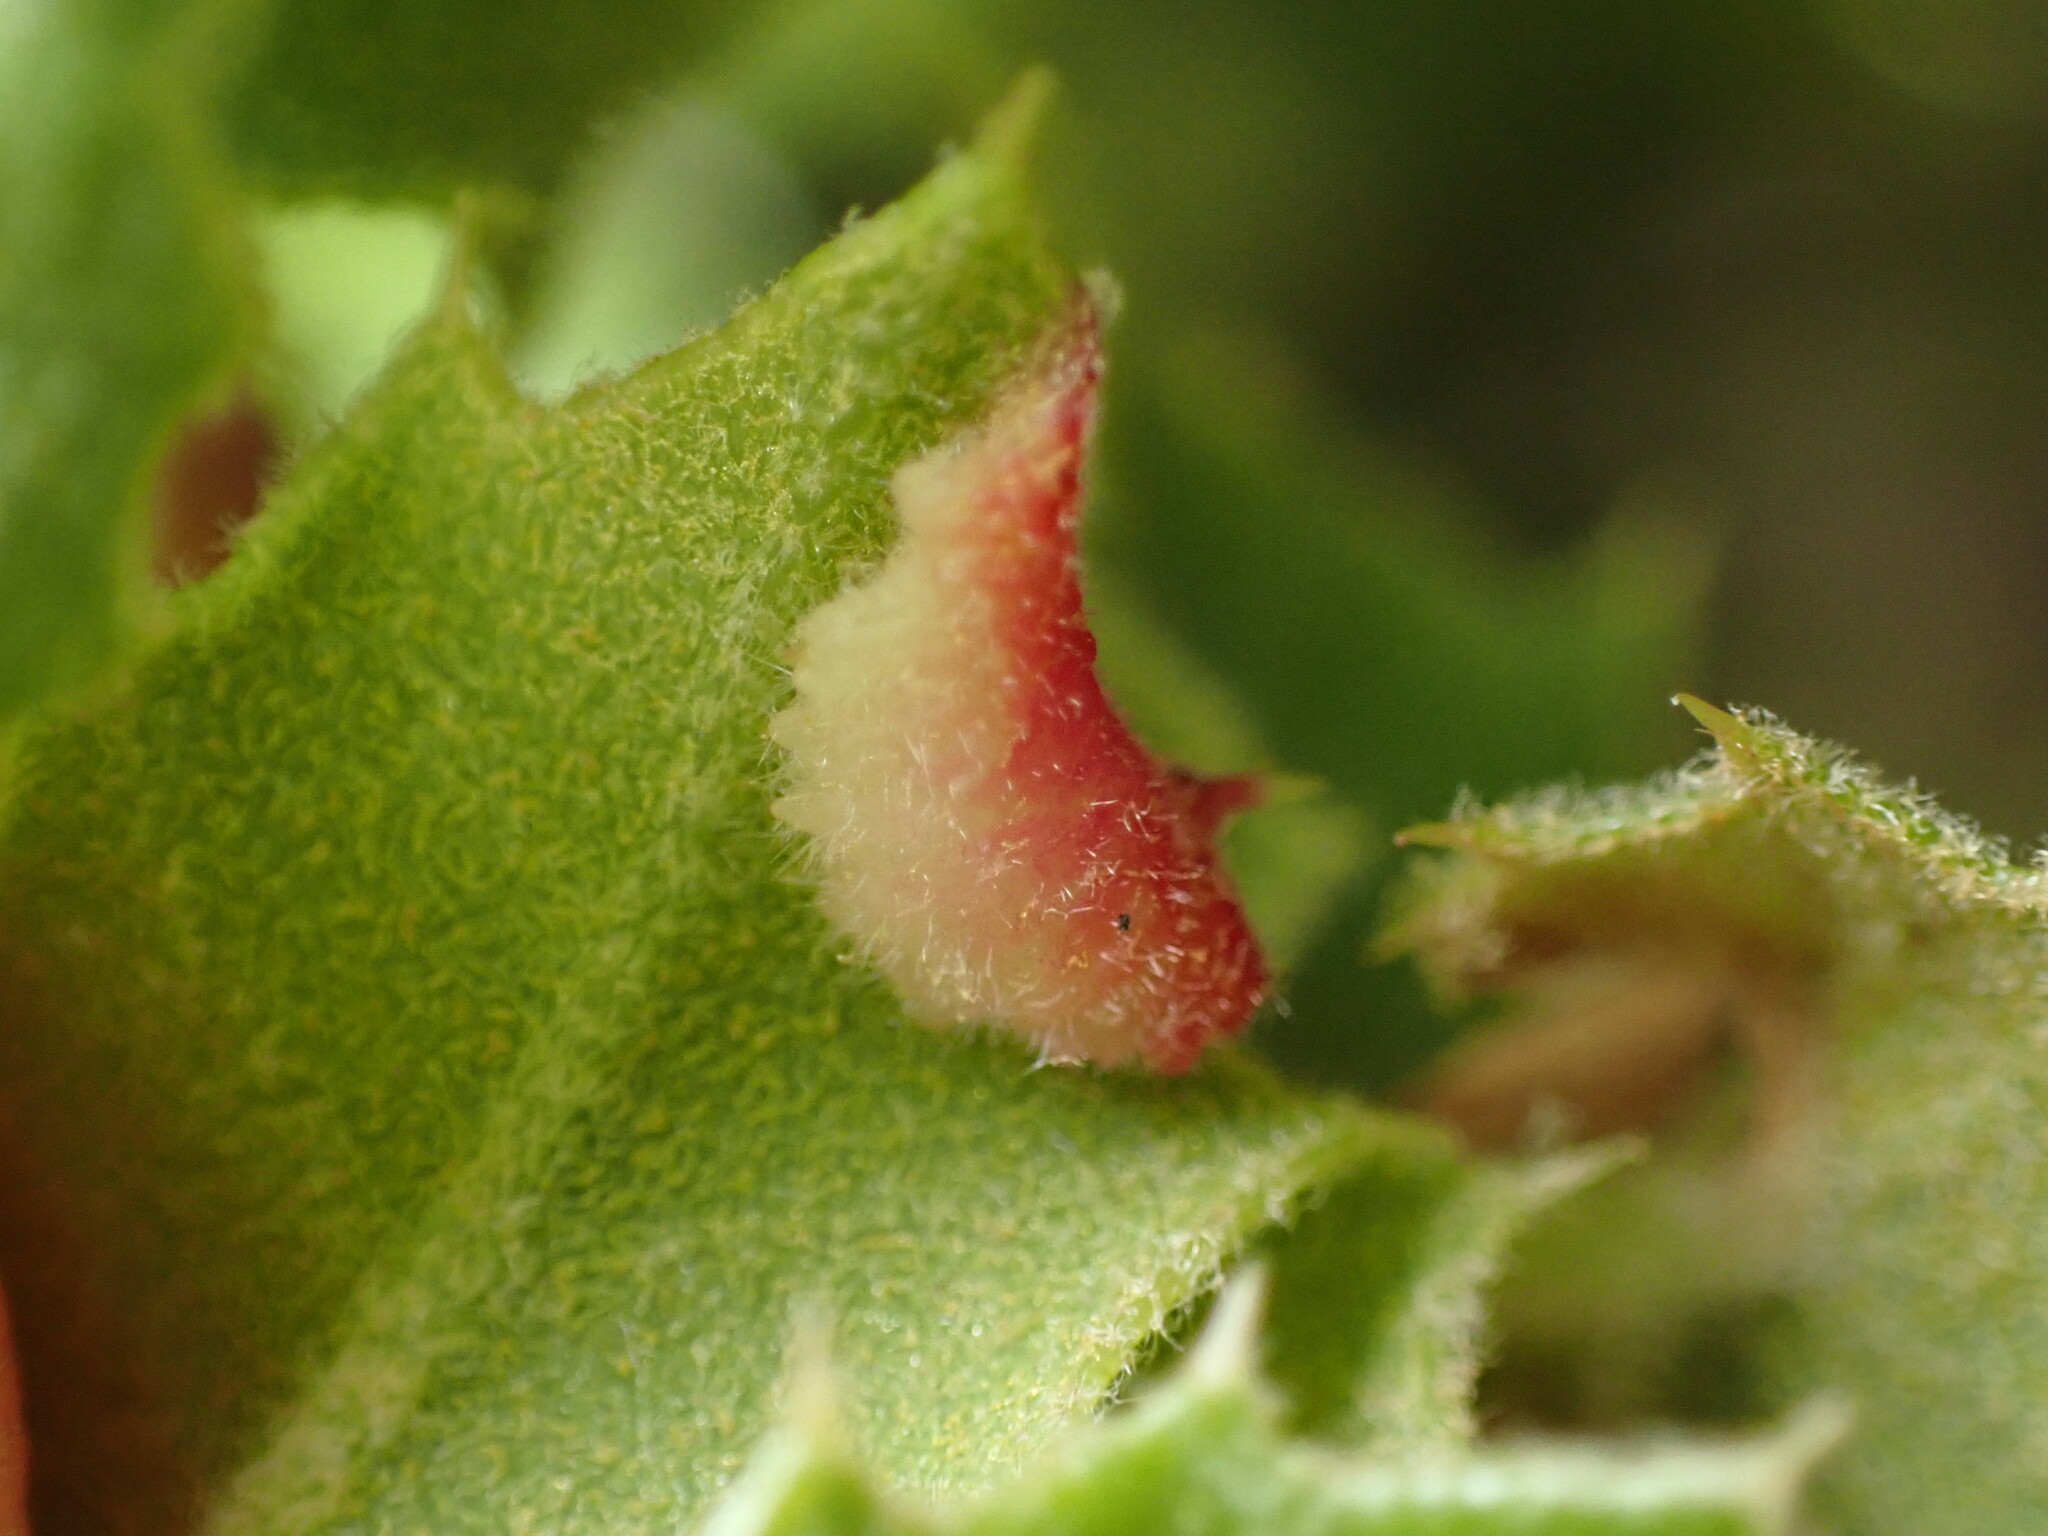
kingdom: Animalia
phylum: Arthropoda
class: Insecta
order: Diptera
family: Cecidomyiidae
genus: Dasineura
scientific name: Dasineura silvestrii
